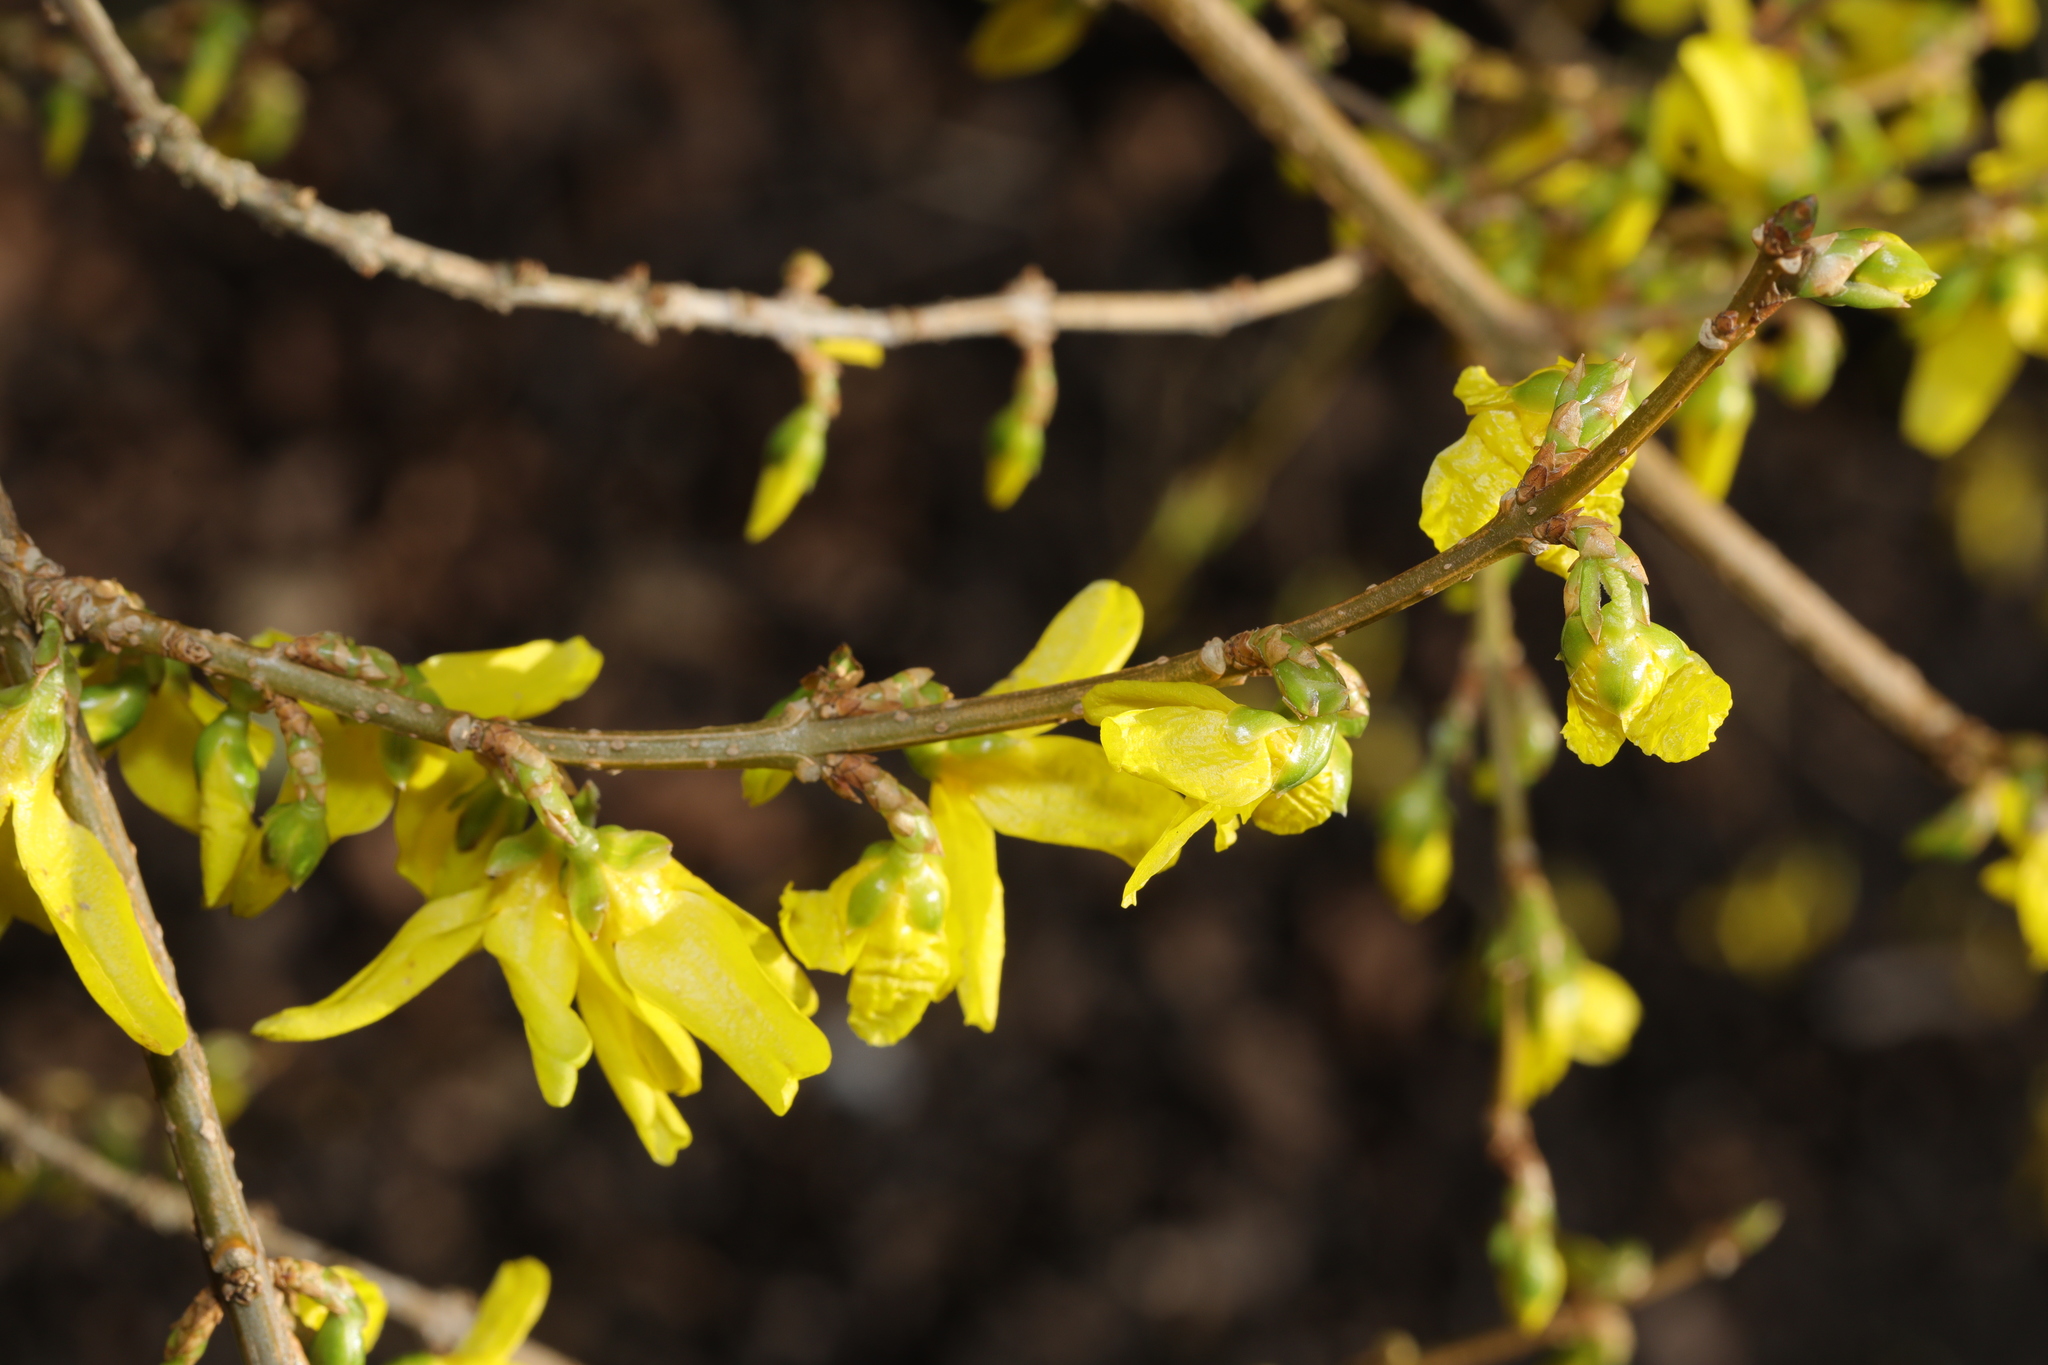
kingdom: Plantae
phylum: Tracheophyta
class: Magnoliopsida
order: Lamiales
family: Oleaceae
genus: Forsythia
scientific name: Forsythia intermedia
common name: Forsythia
